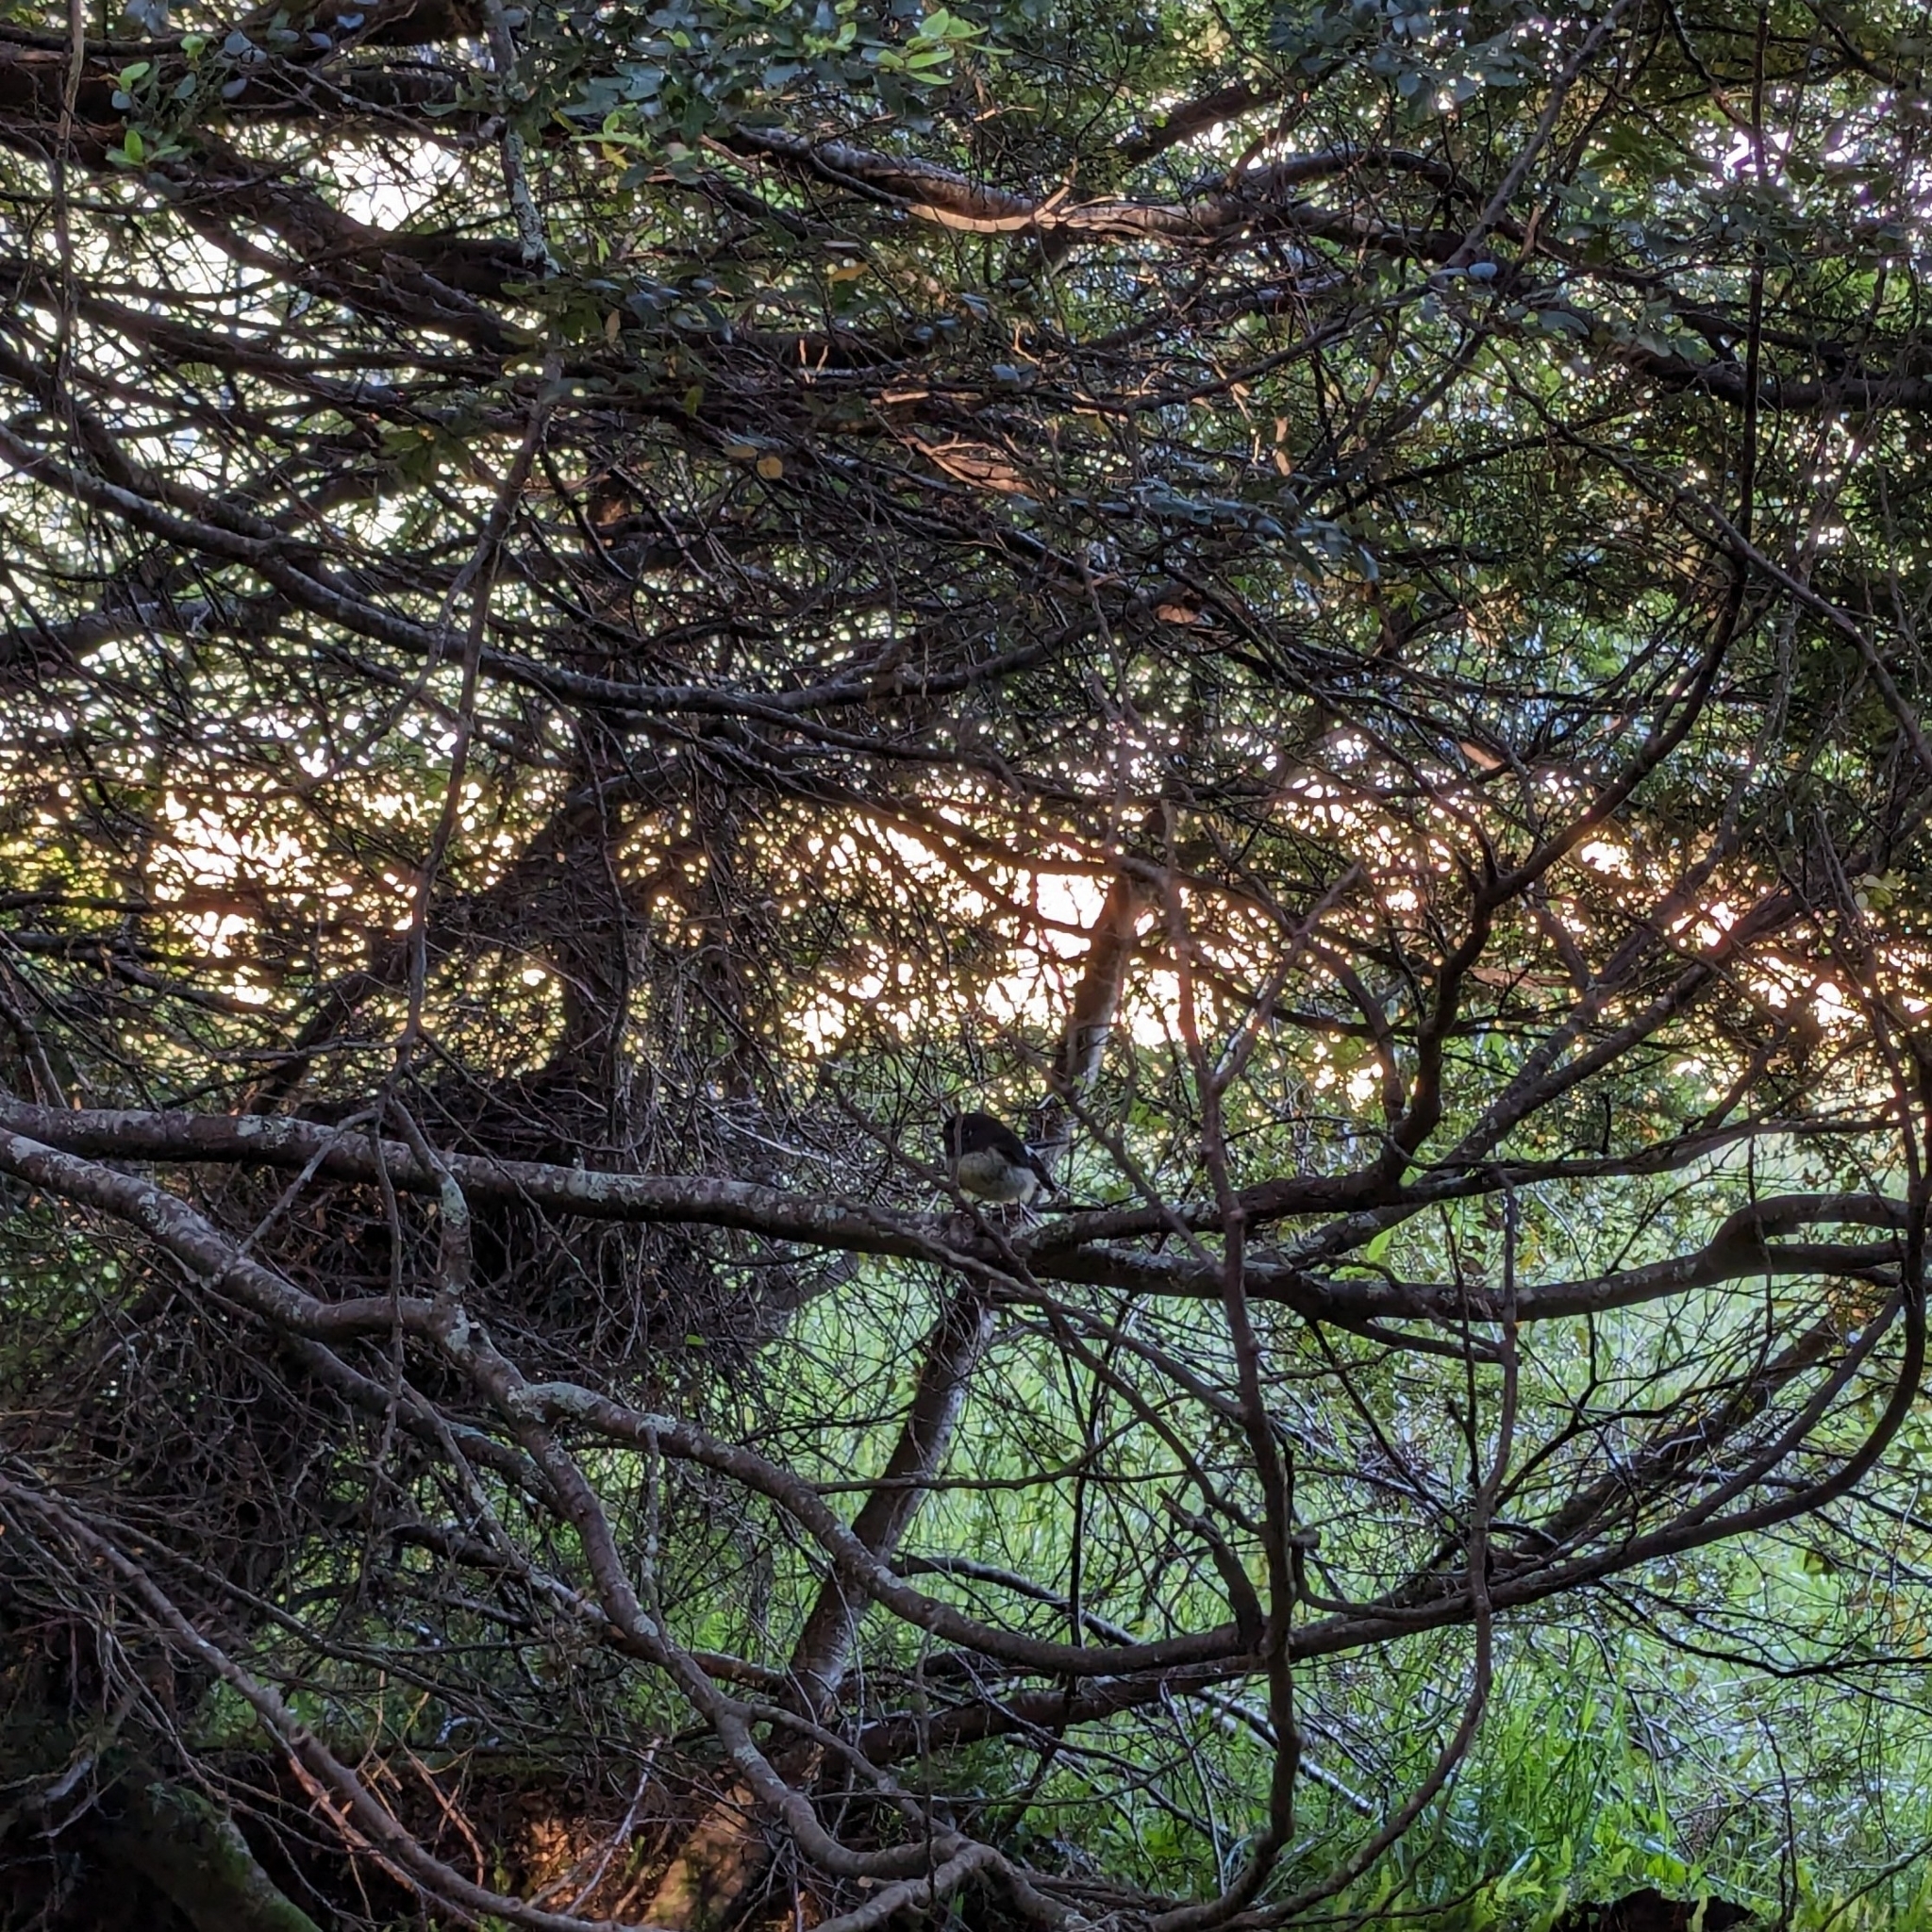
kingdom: Animalia
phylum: Chordata
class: Aves
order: Passeriformes
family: Petroicidae
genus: Petroica
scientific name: Petroica macrocephala
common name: Tomtit
